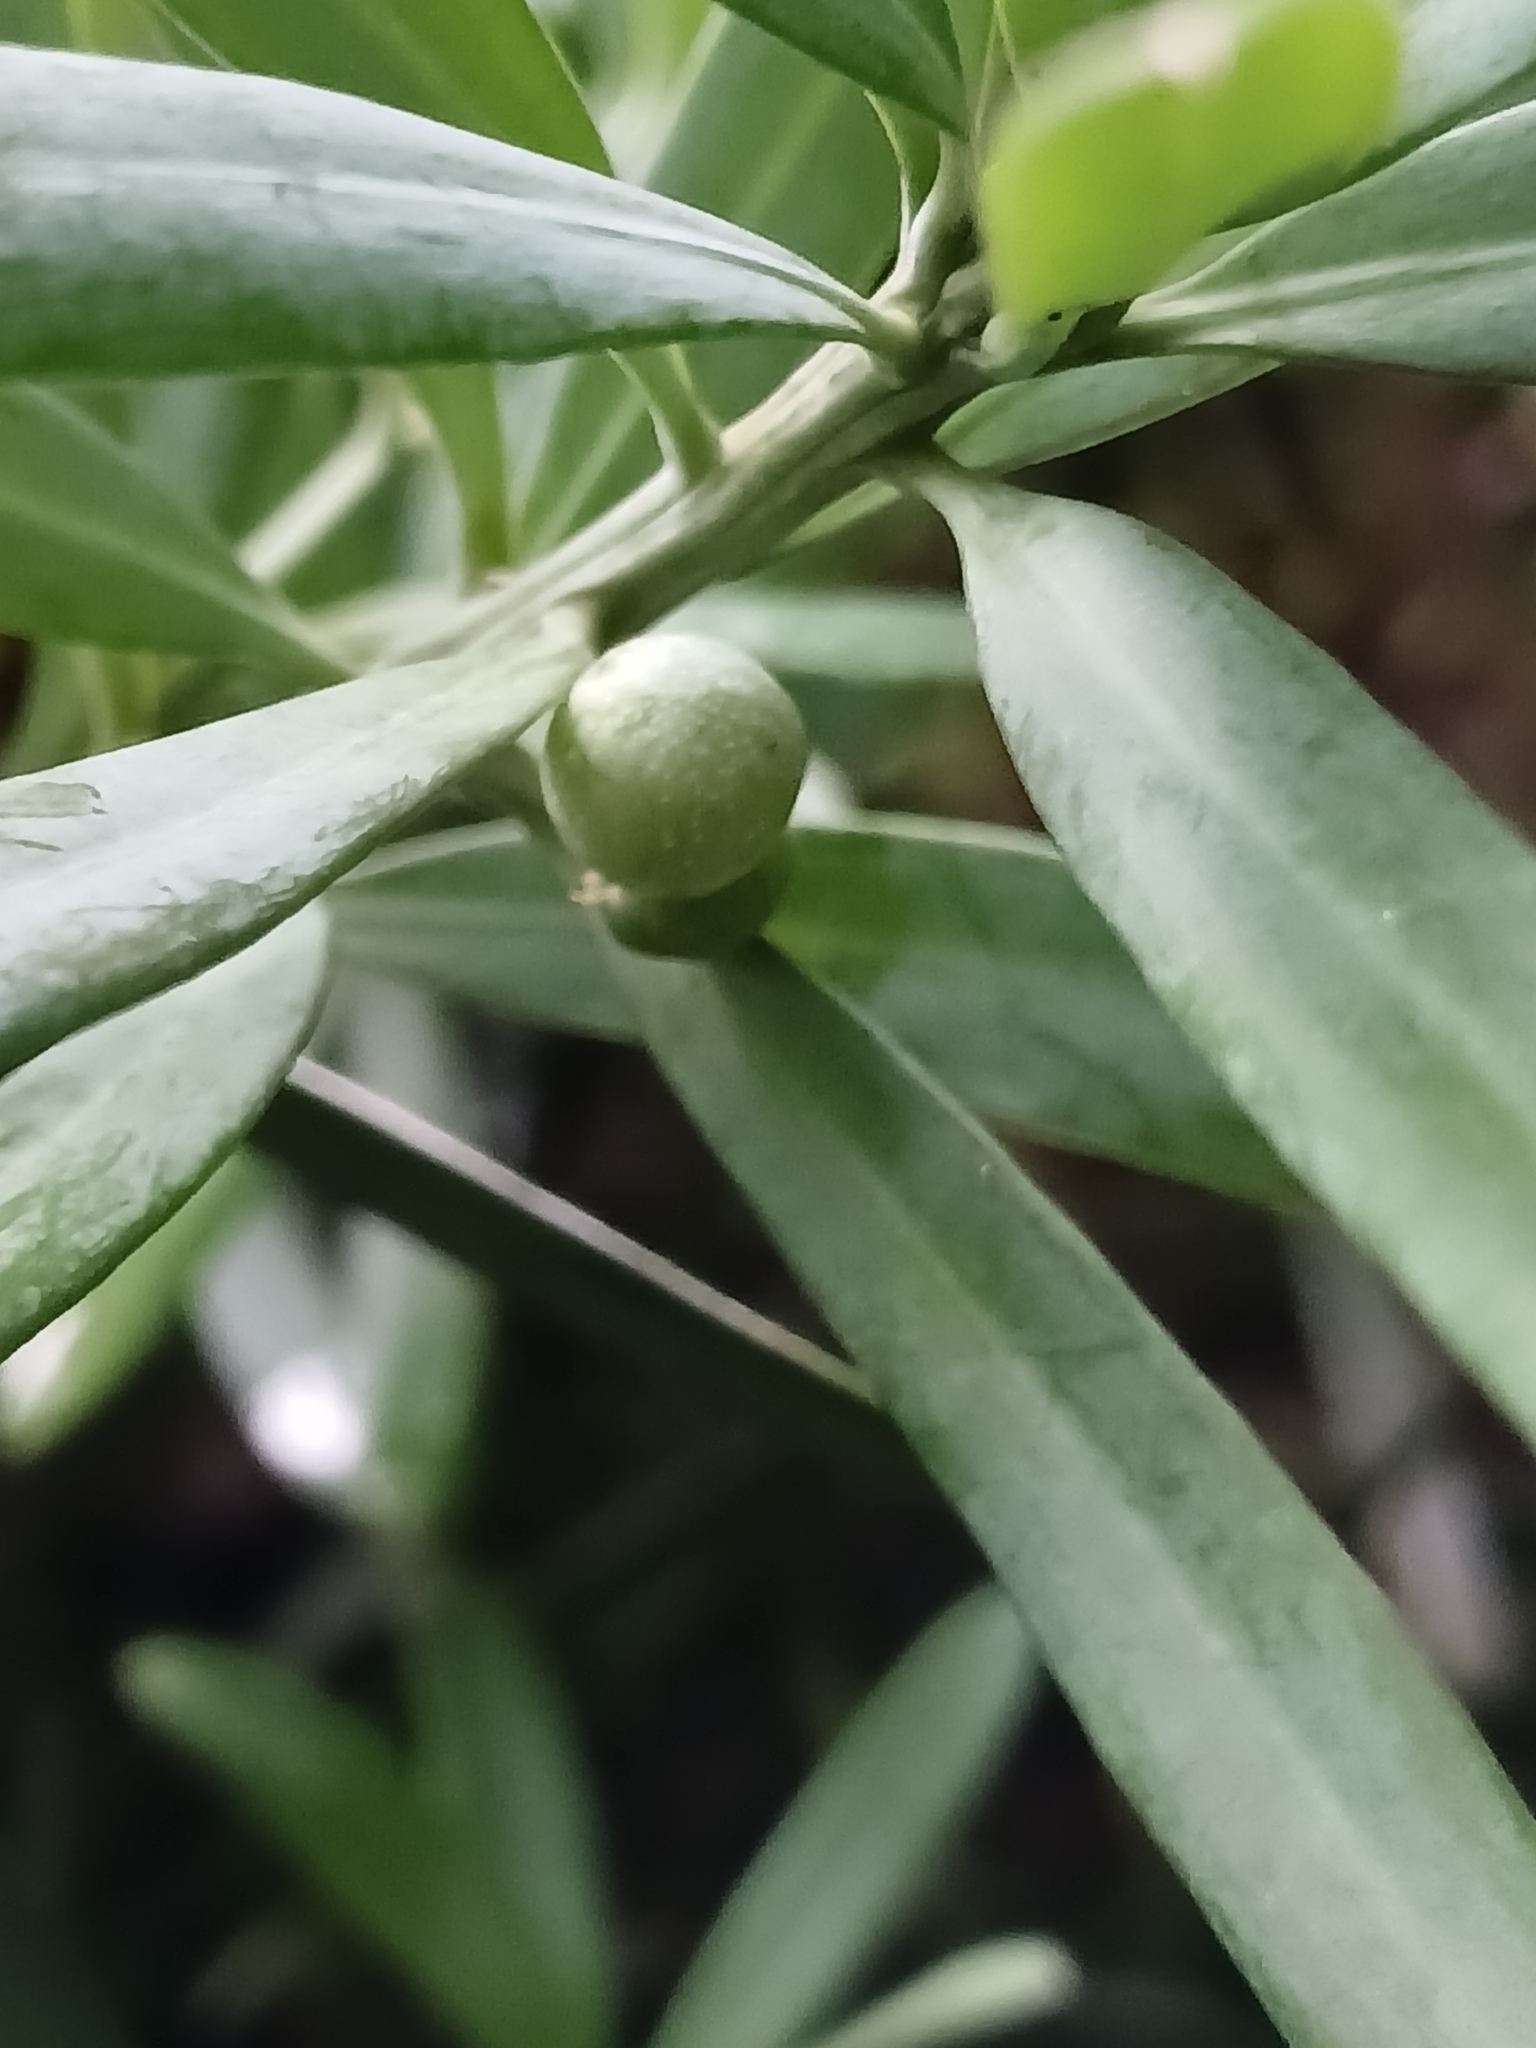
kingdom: Plantae
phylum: Tracheophyta
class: Pinopsida
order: Pinales
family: Podocarpaceae
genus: Podocarpus
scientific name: Podocarpus latifolius
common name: True yellowwood
